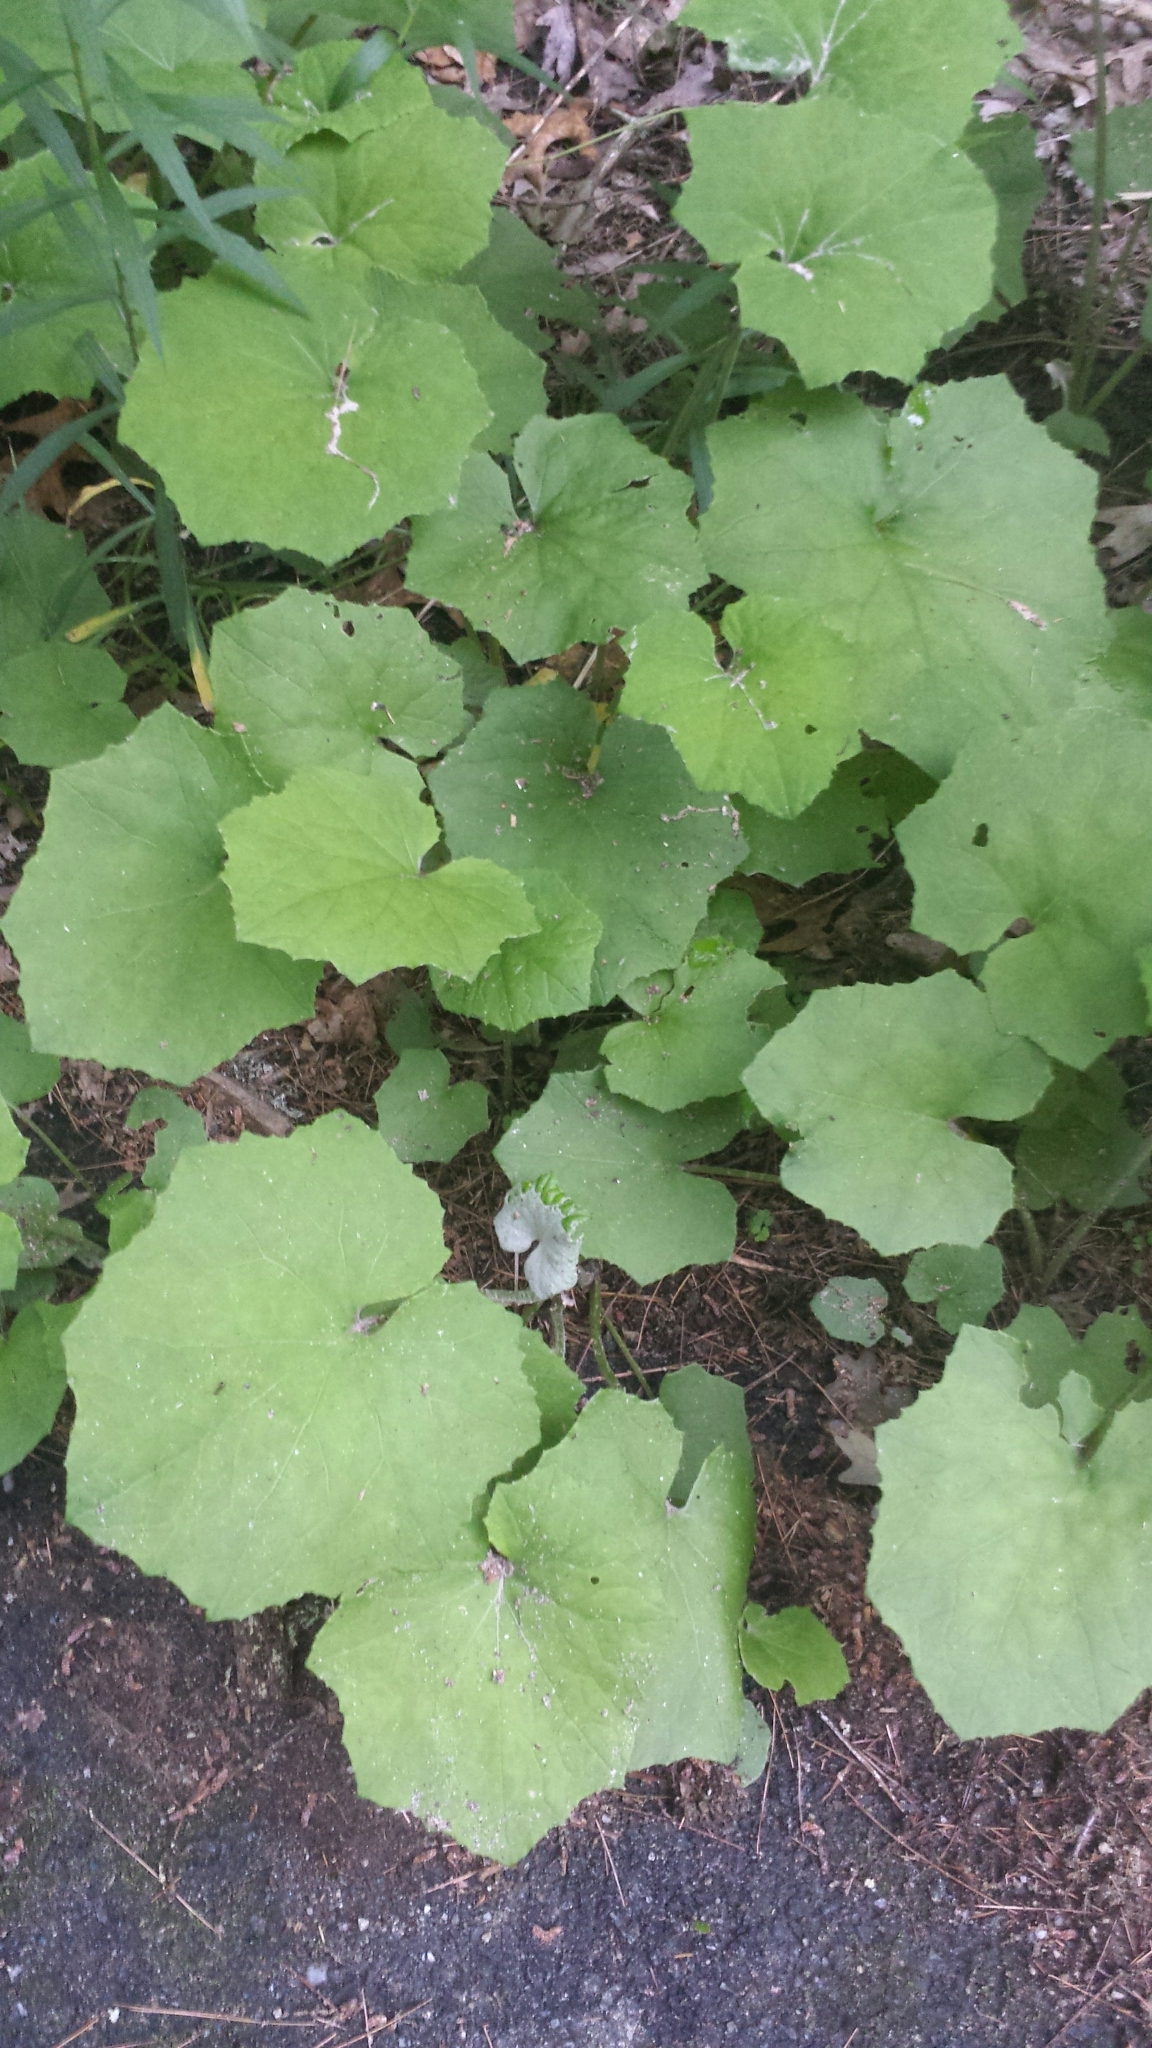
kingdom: Plantae
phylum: Tracheophyta
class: Magnoliopsida
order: Asterales
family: Asteraceae
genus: Tussilago
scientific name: Tussilago farfara
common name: Coltsfoot
